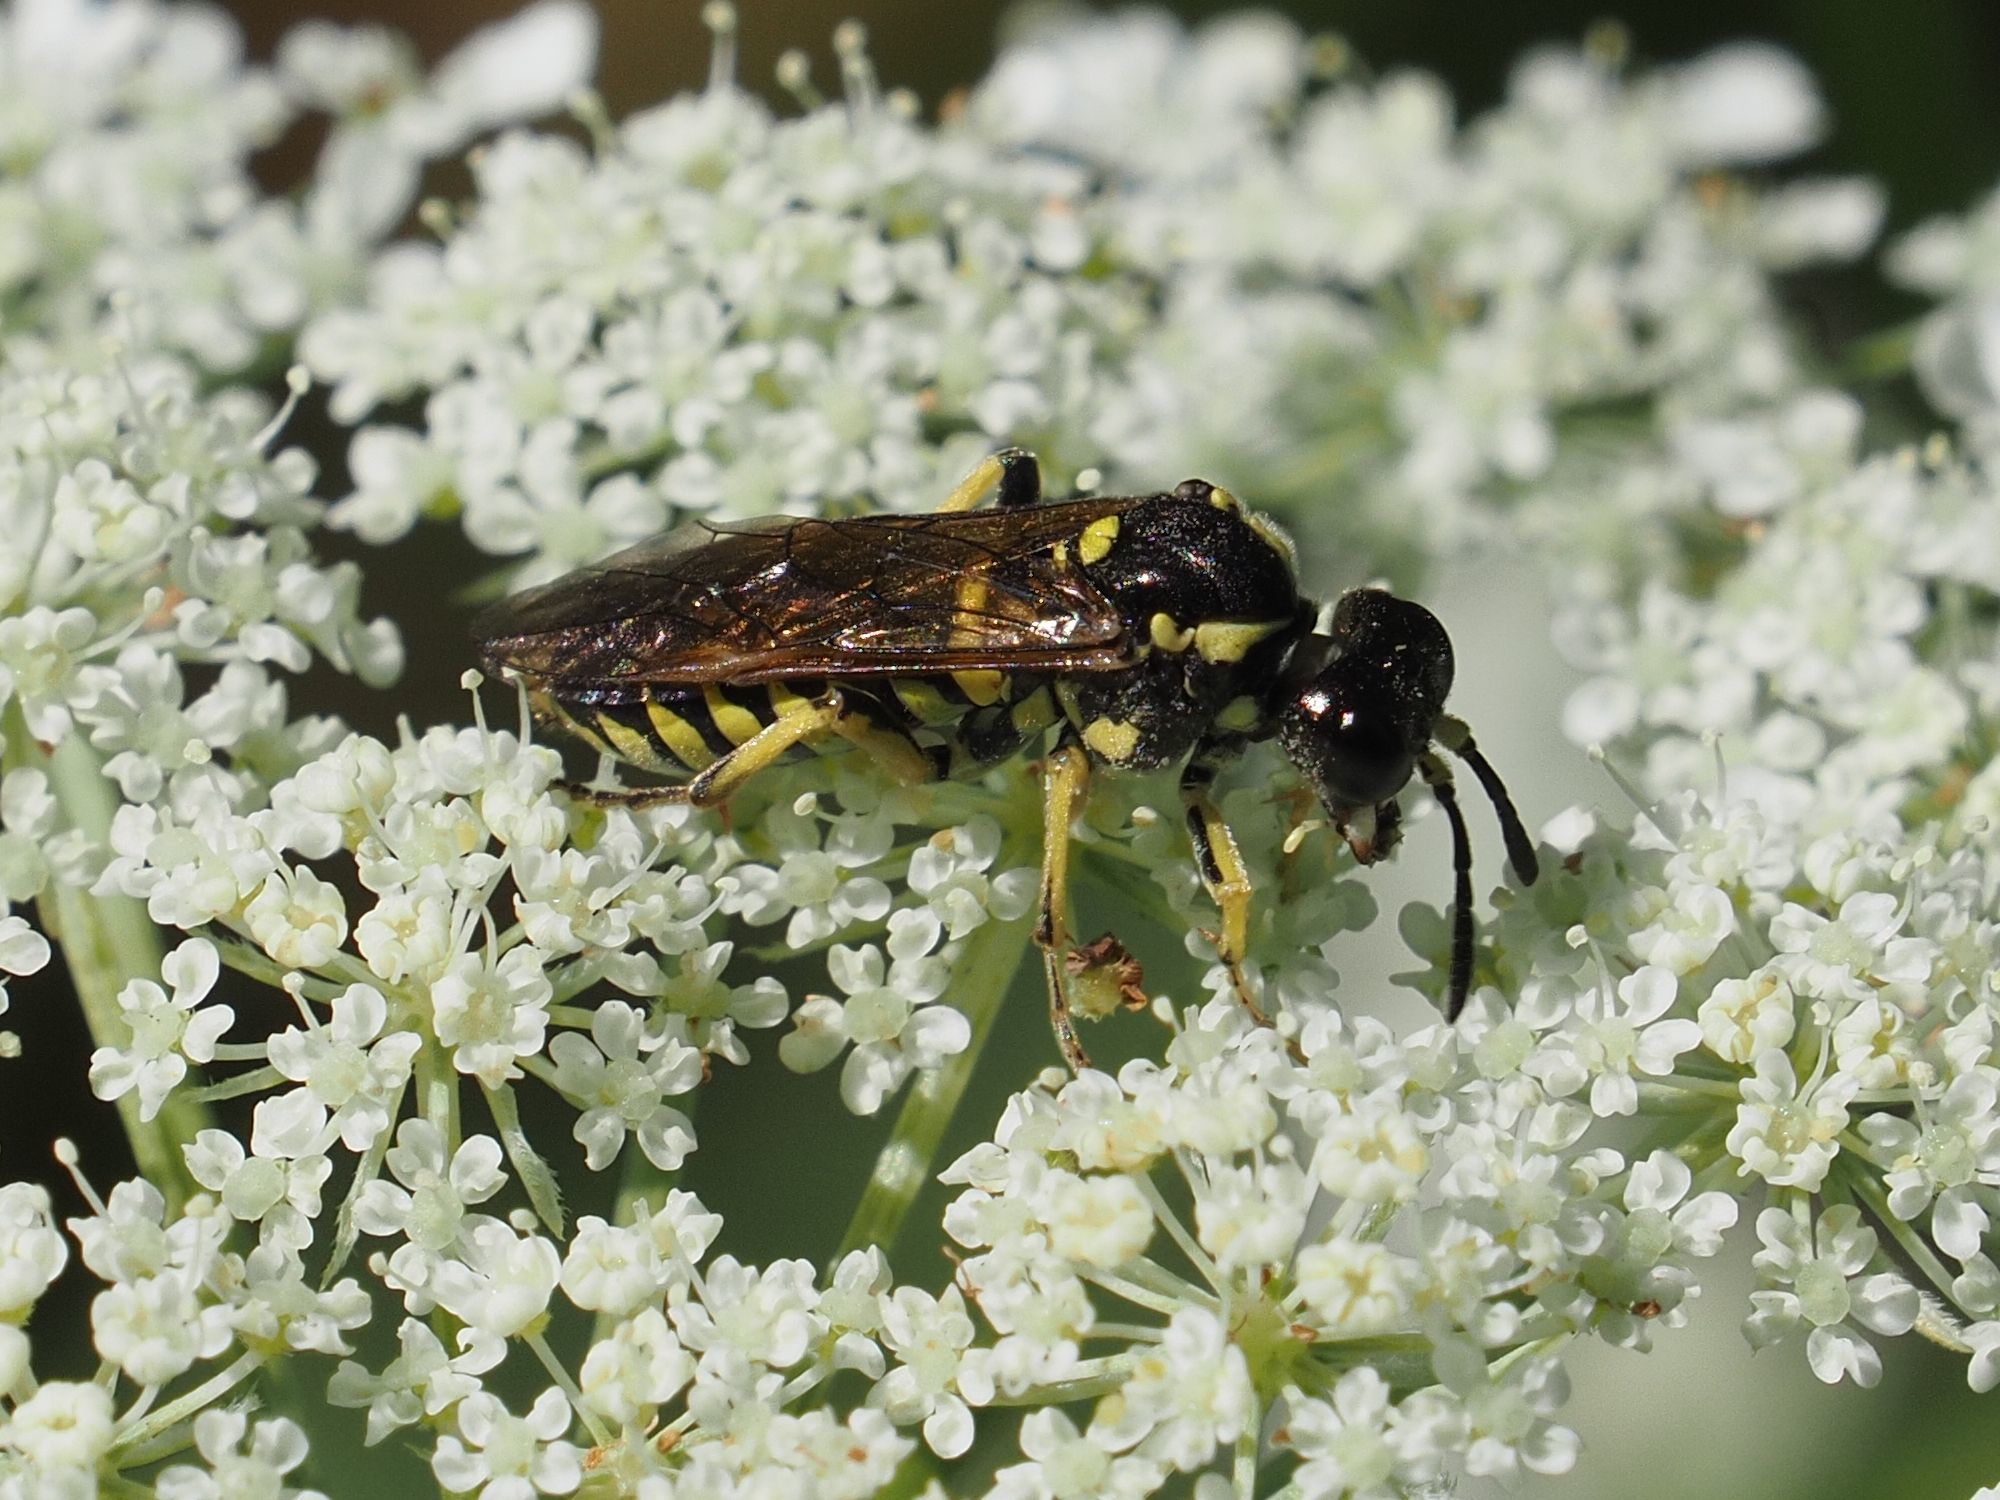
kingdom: Animalia
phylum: Arthropoda
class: Insecta
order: Hymenoptera
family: Tenthredinidae
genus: Tenthredo
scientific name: Tenthredo
